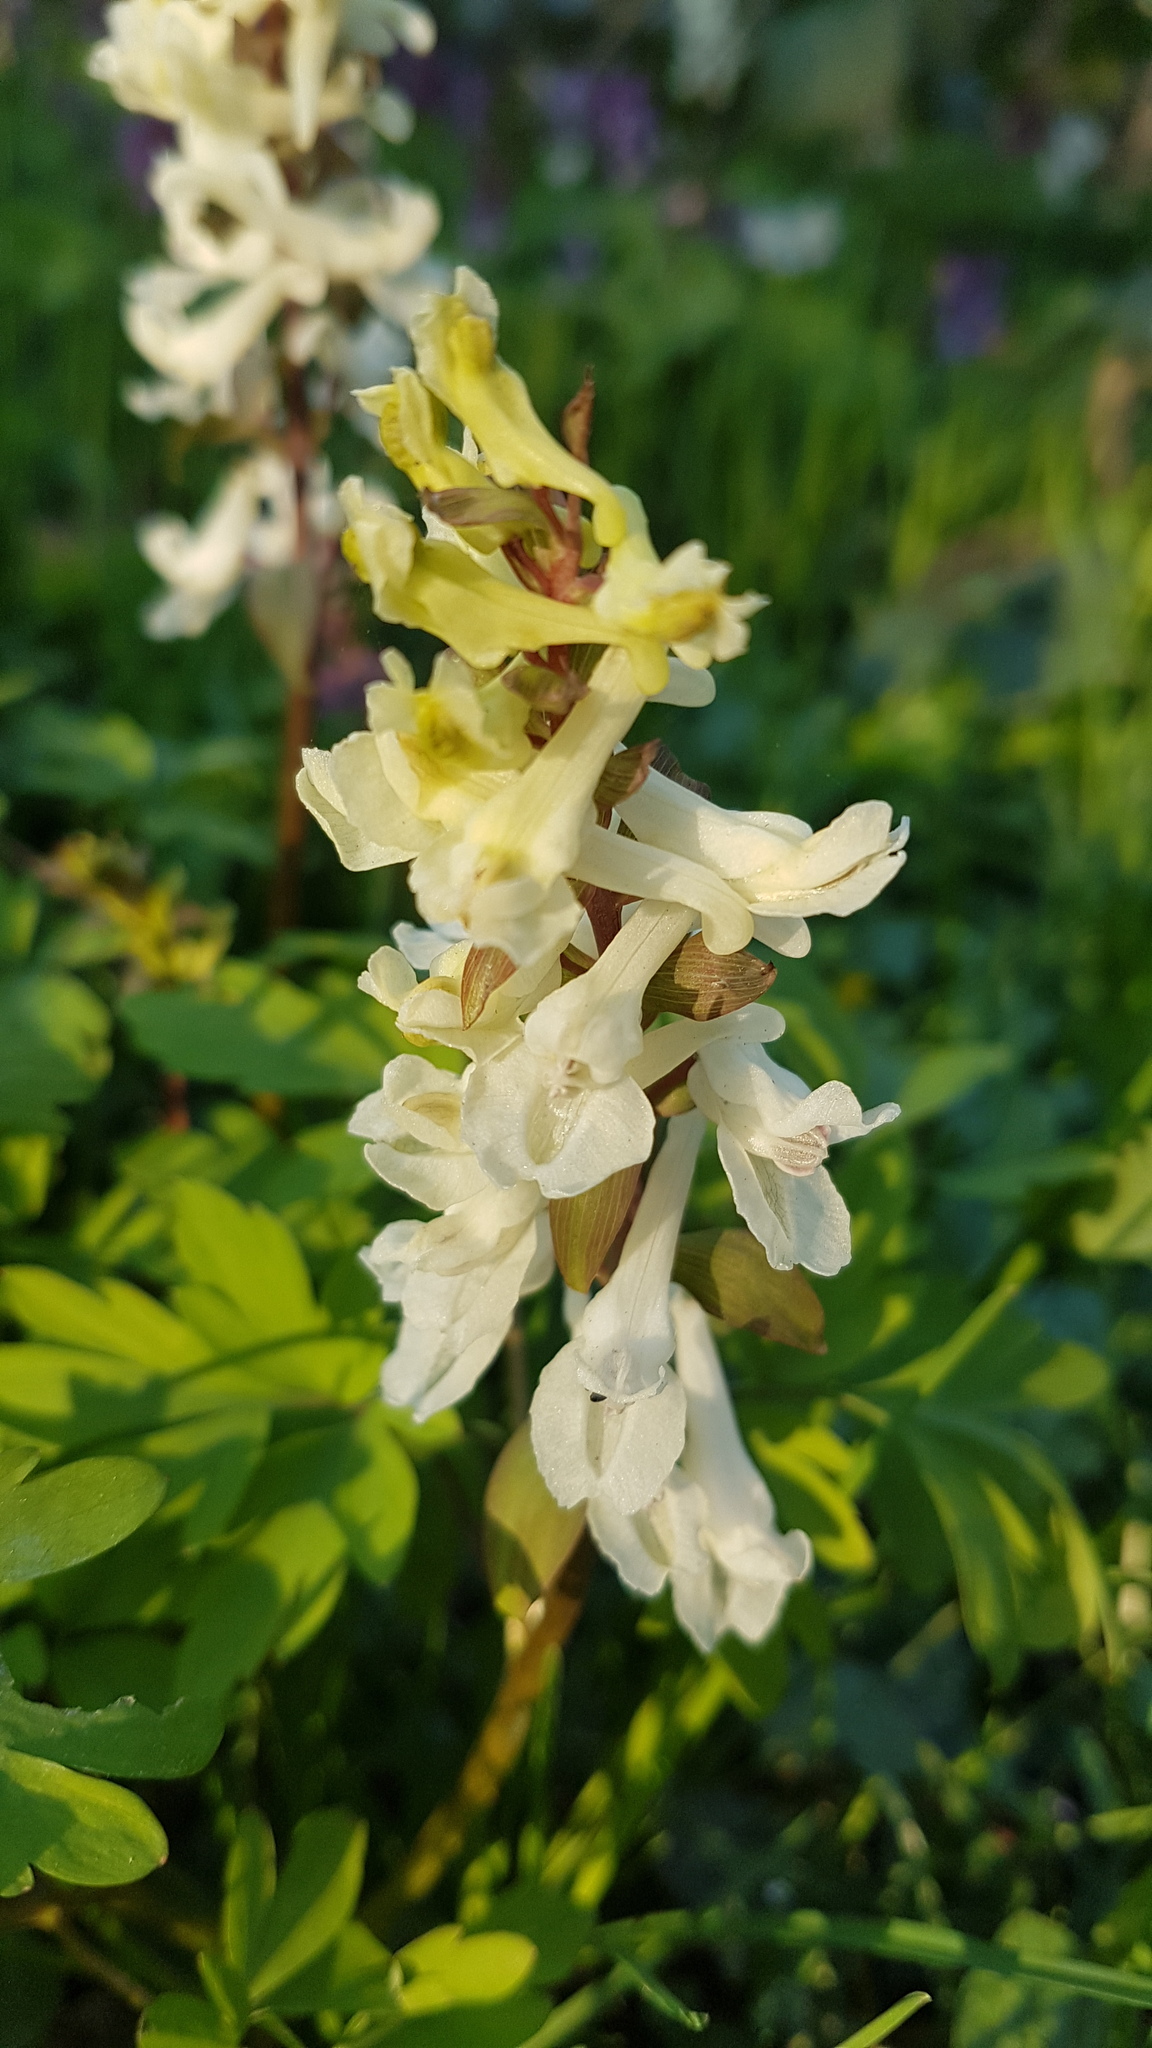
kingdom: Plantae
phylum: Tracheophyta
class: Magnoliopsida
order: Ranunculales
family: Papaveraceae
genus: Corydalis
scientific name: Corydalis cava
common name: Hollowroot
